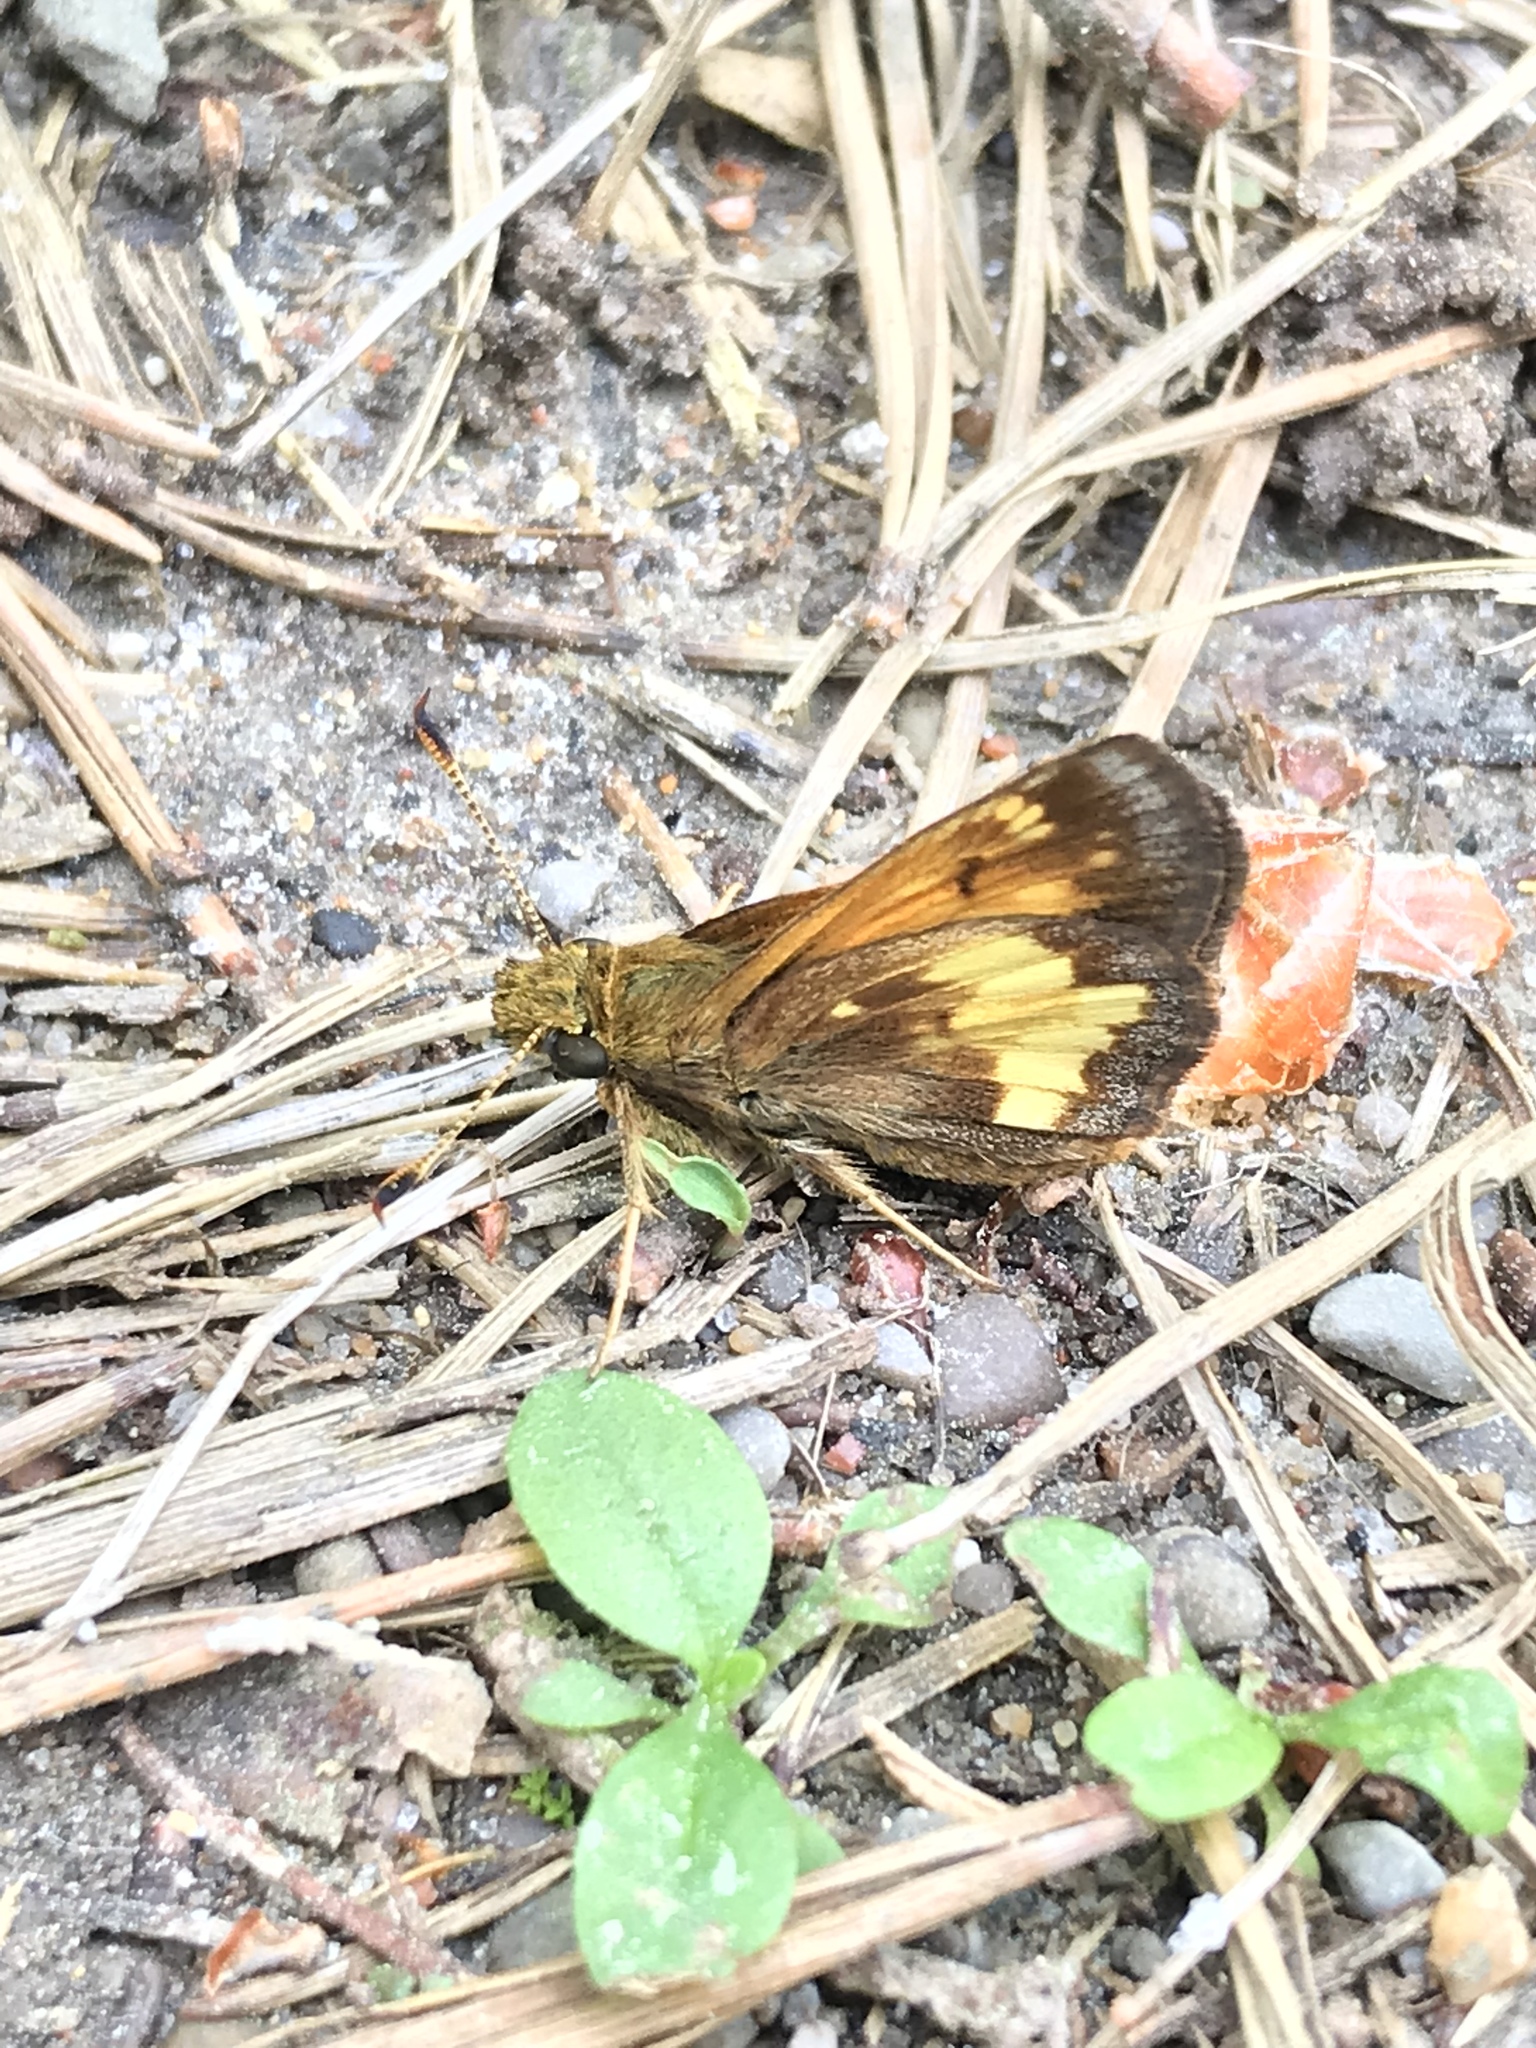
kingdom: Animalia
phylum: Arthropoda
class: Insecta
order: Lepidoptera
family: Hesperiidae
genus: Lon
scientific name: Lon hobomok
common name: Hobomok skipper
